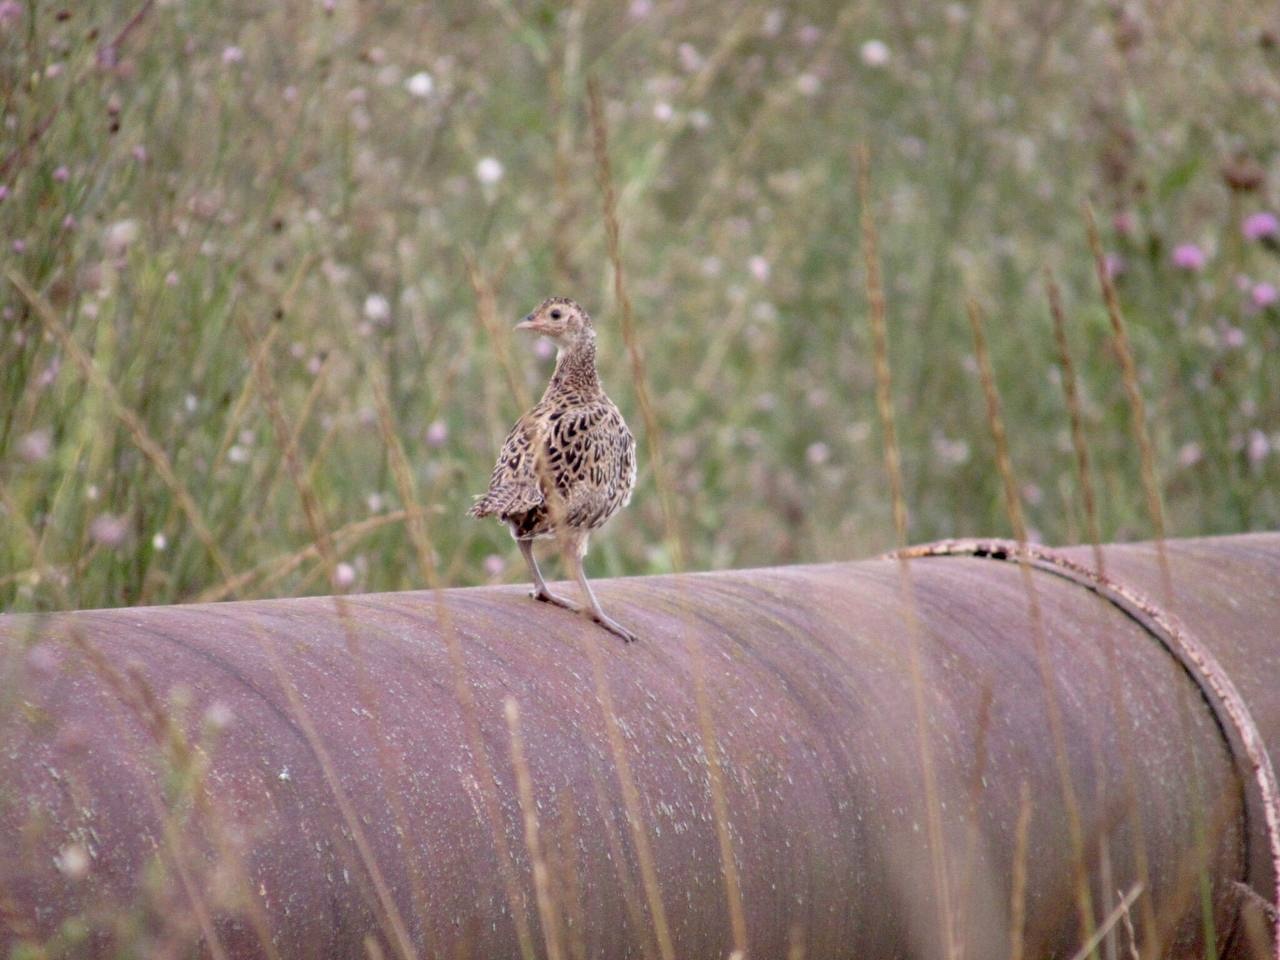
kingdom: Animalia
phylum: Chordata
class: Aves
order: Gruiformes
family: Rallidae
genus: Crex
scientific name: Crex crex
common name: Corn crake
